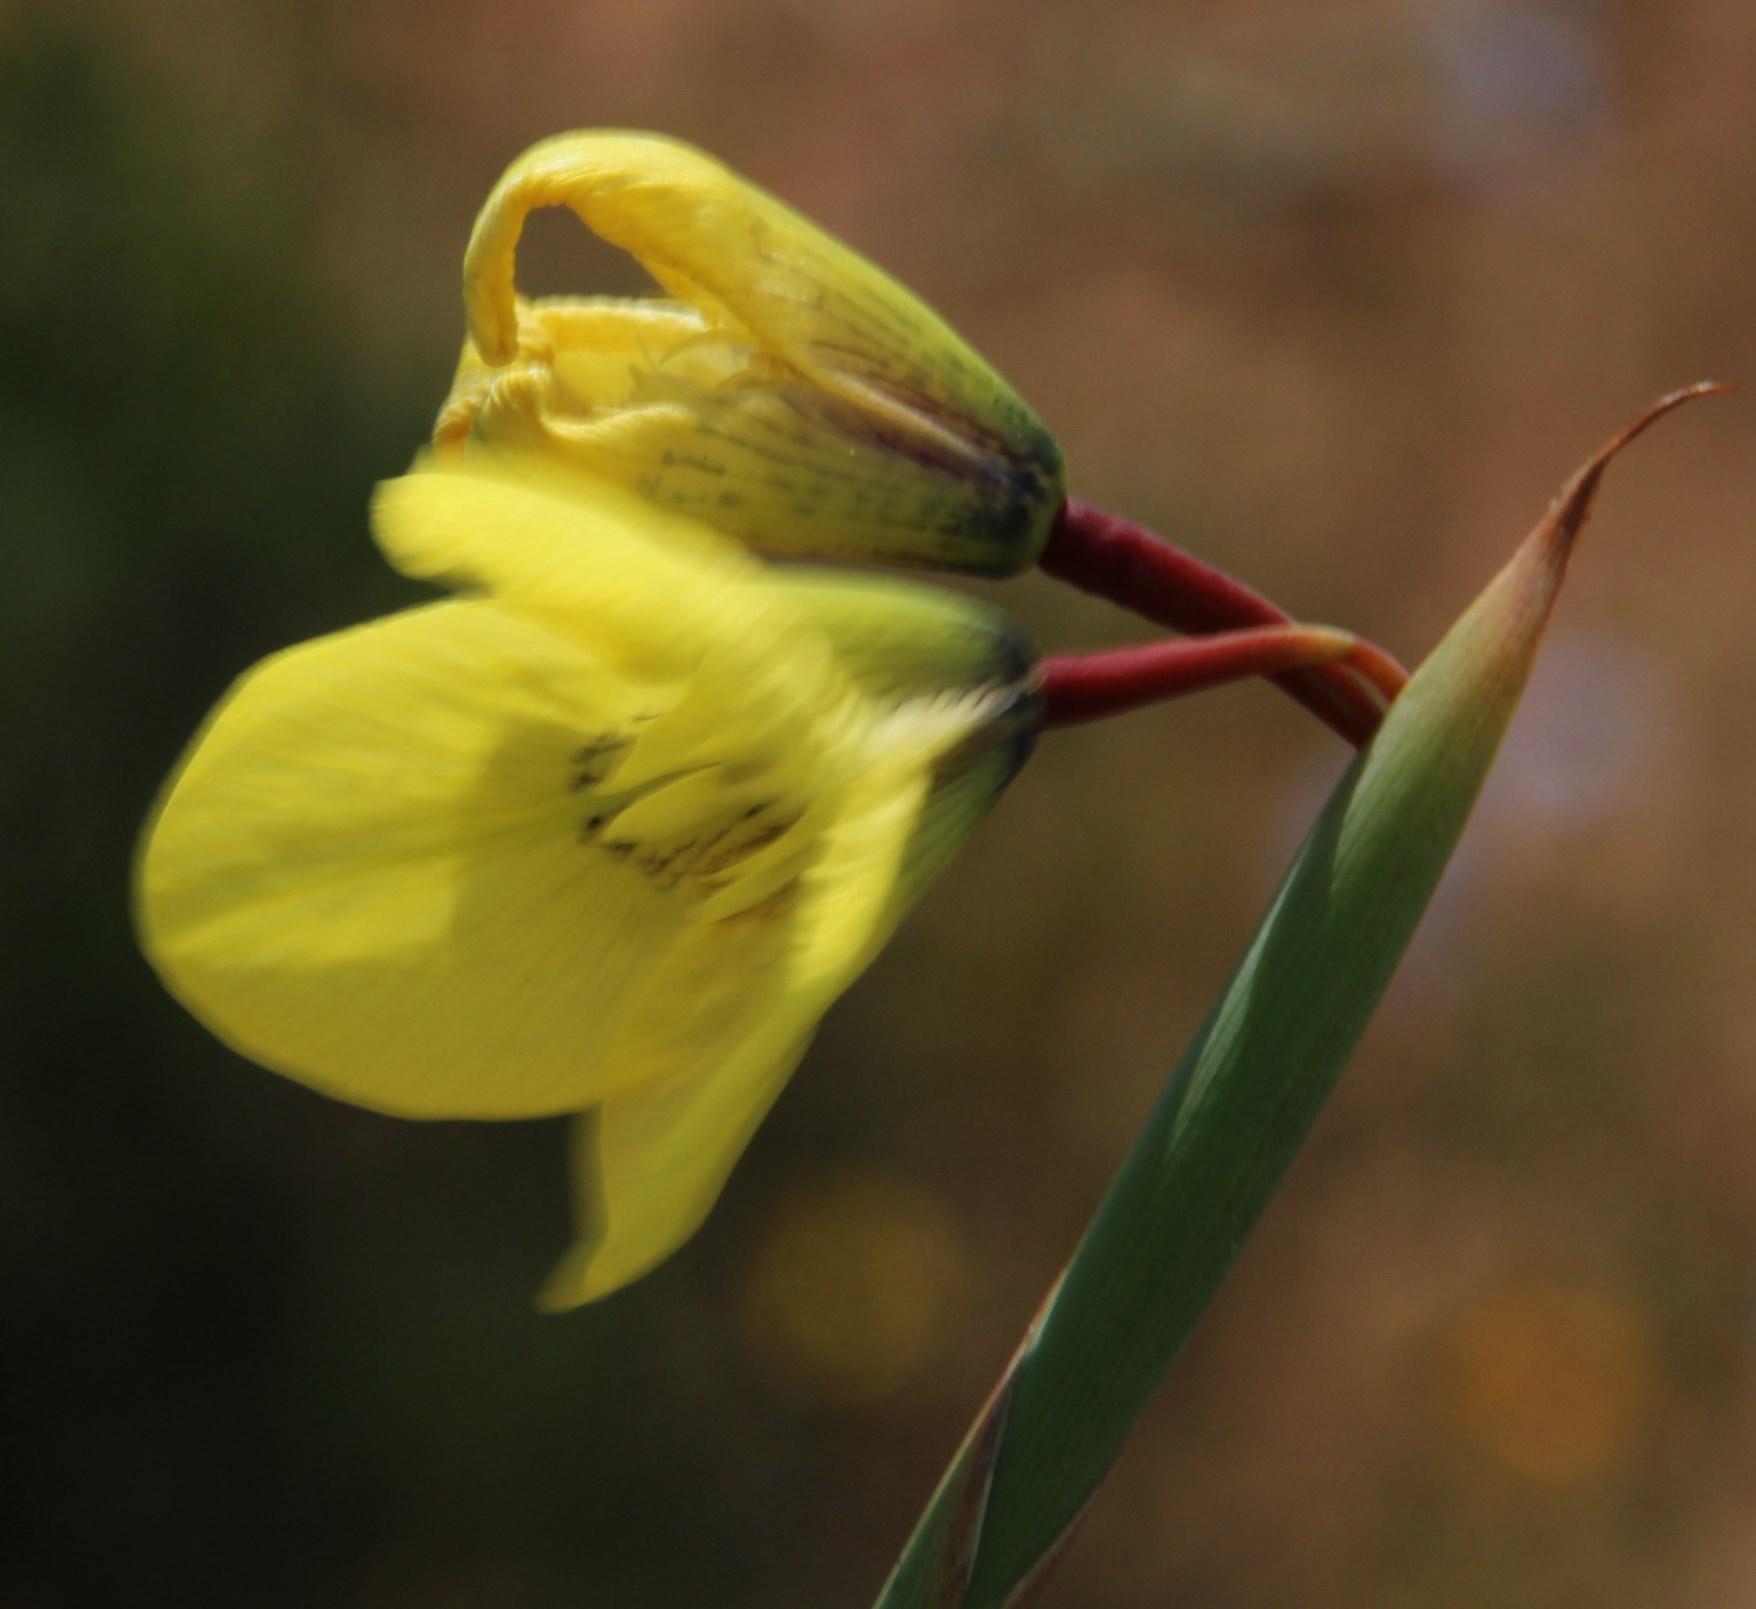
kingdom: Plantae
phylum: Tracheophyta
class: Liliopsida
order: Asparagales
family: Iridaceae
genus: Moraea
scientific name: Moraea bellendenii
